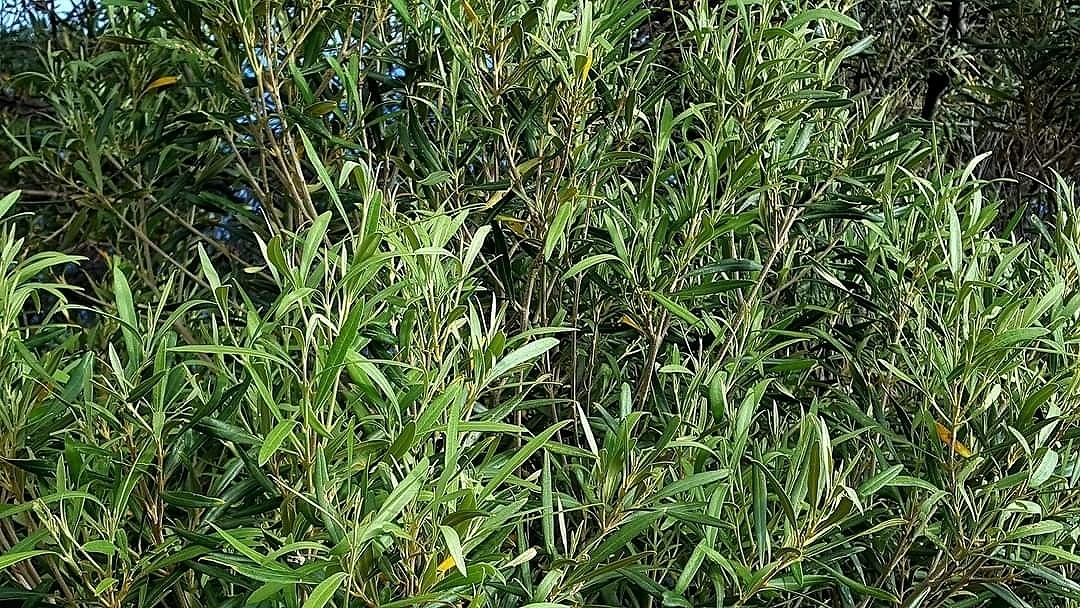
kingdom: Plantae
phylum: Tracheophyta
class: Magnoliopsida
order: Lamiales
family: Oleaceae
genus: Olea
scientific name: Olea europaea
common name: Olive
